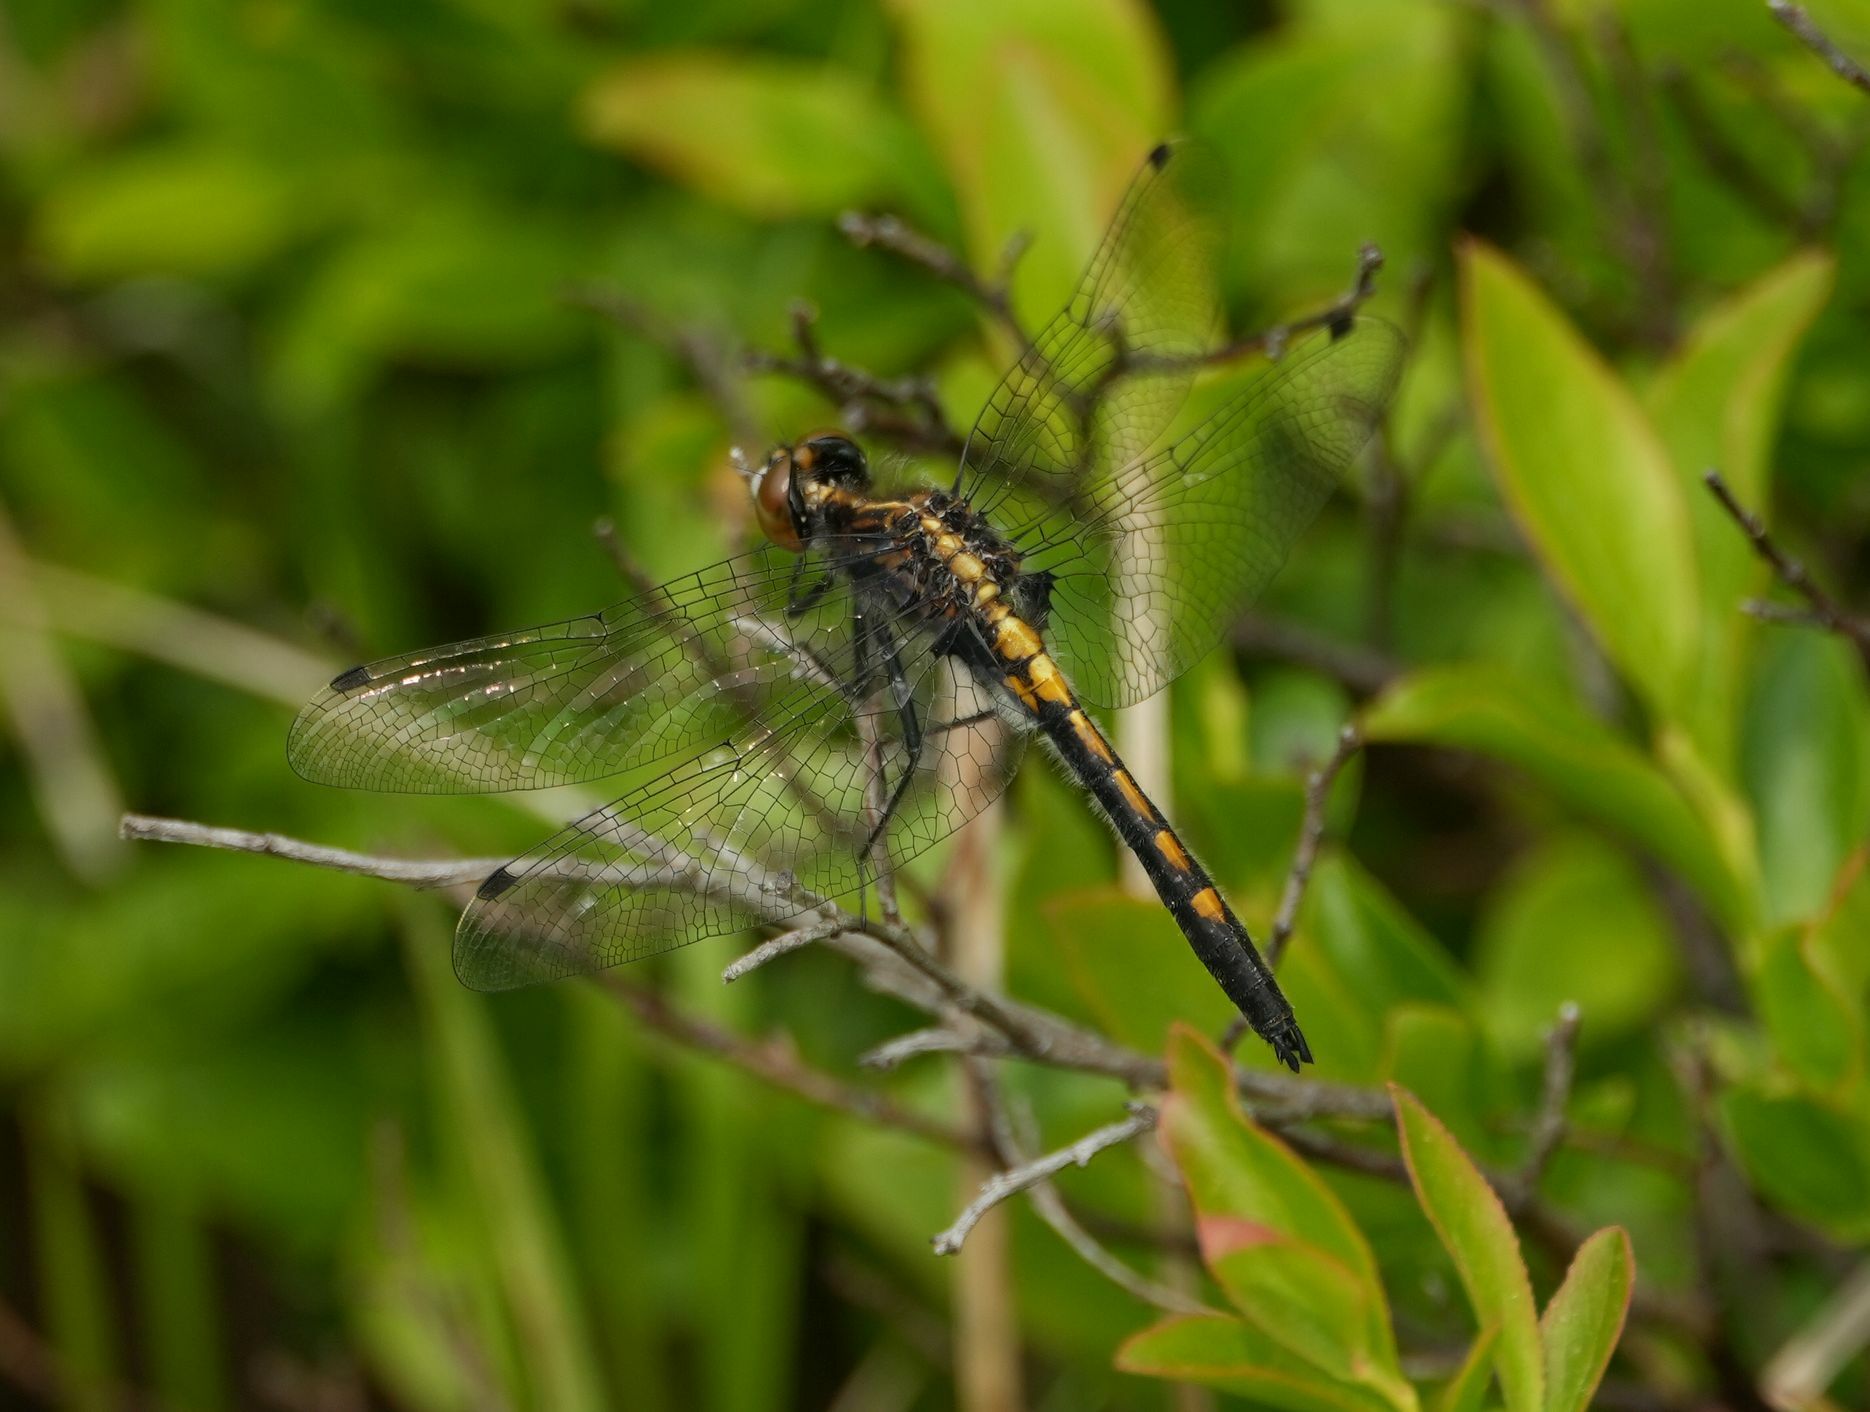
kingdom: Animalia
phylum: Arthropoda
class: Insecta
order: Odonata
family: Libellulidae
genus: Leucorrhinia
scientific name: Leucorrhinia intacta
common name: Dot-tailed whiteface
